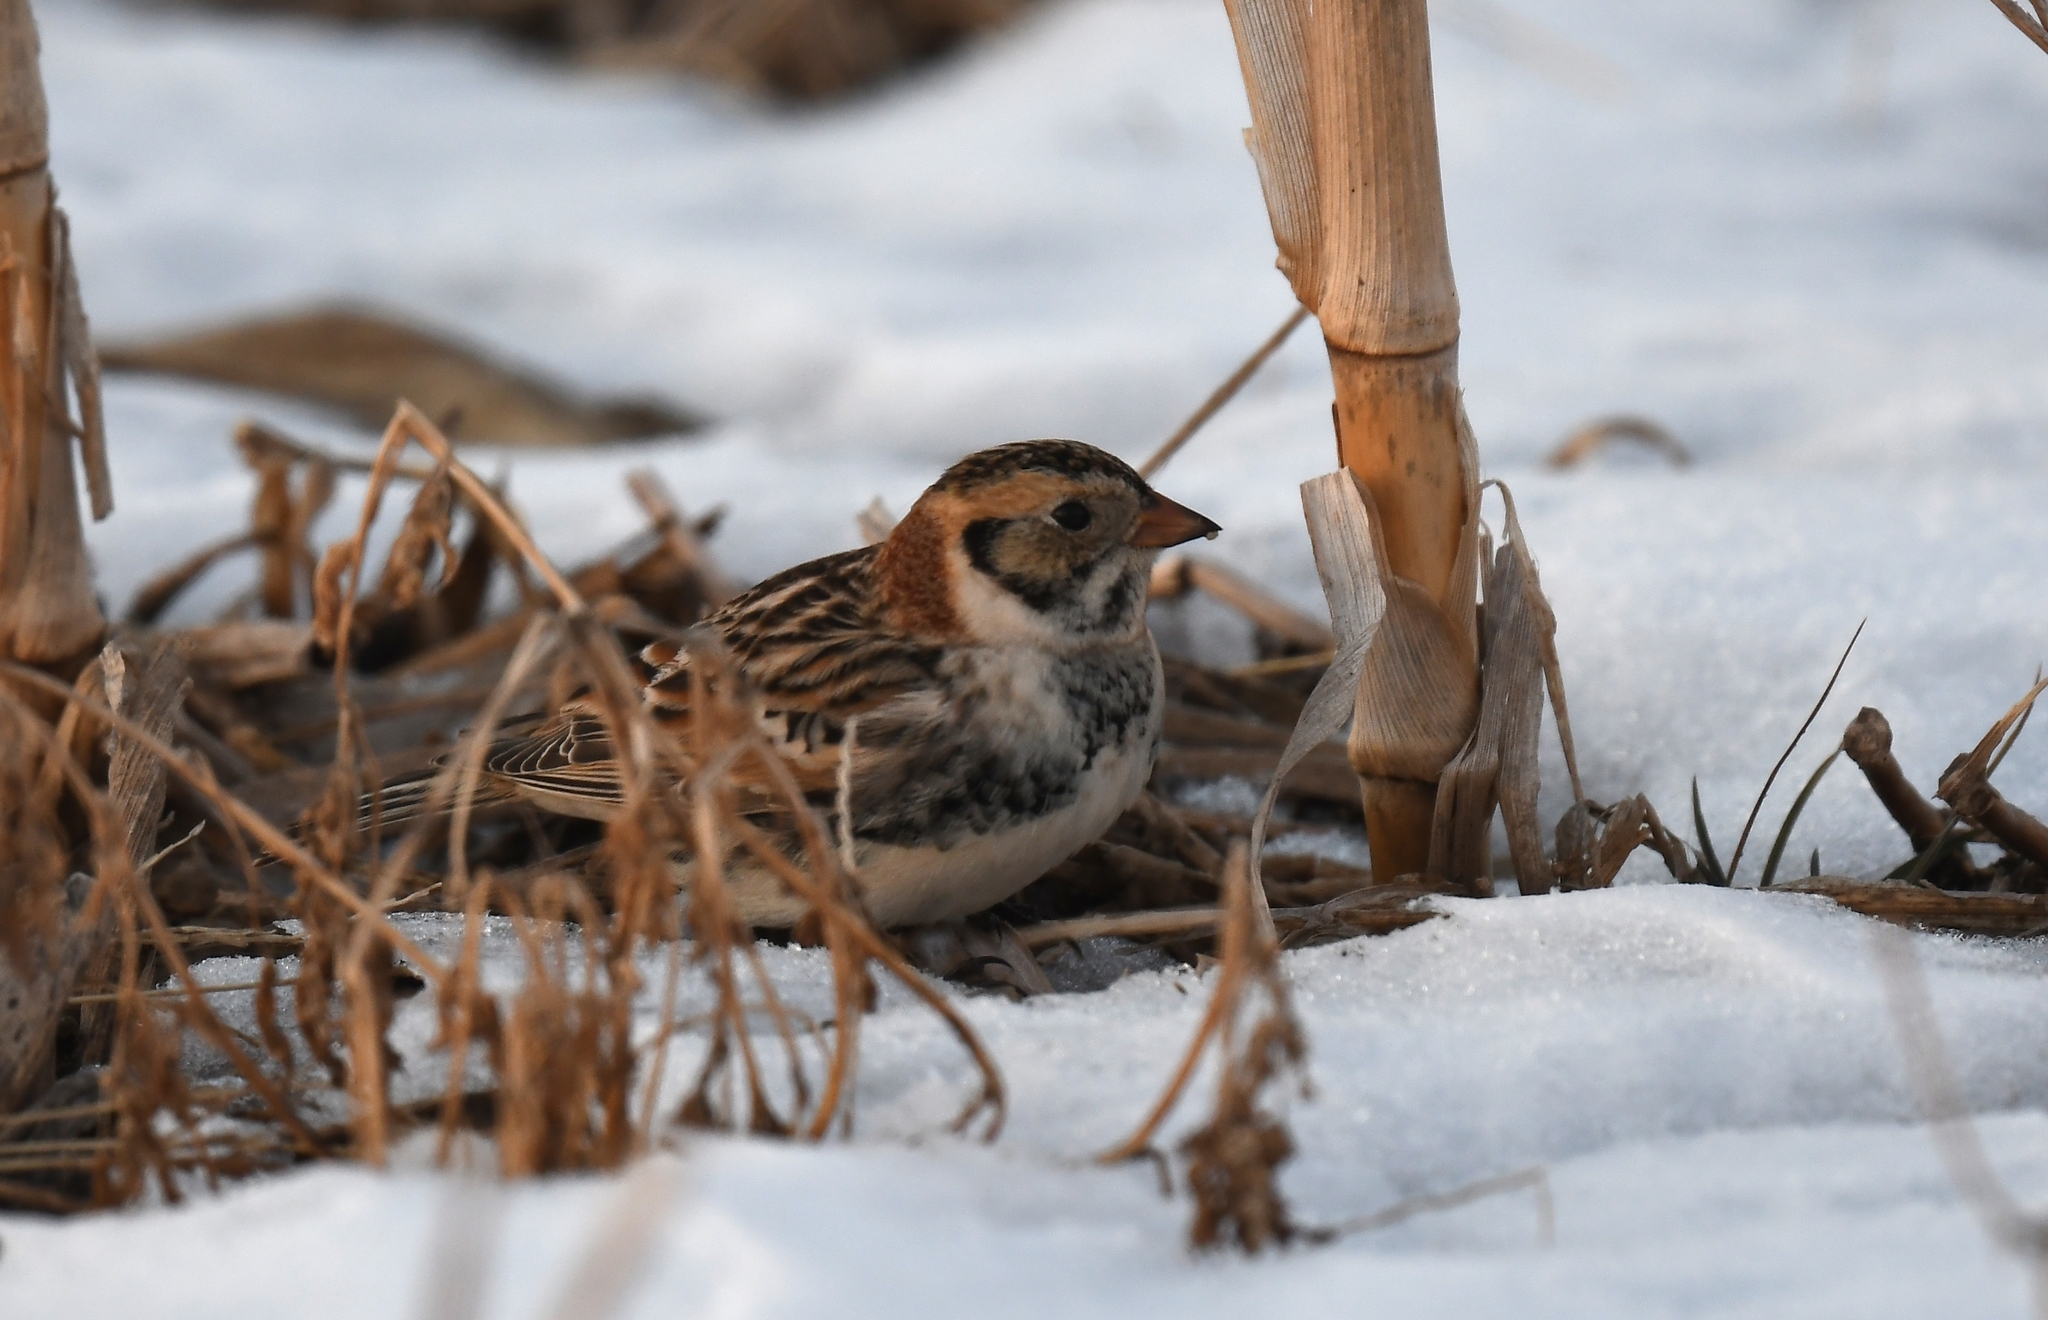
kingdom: Animalia
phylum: Chordata
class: Aves
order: Passeriformes
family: Calcariidae
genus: Calcarius
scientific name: Calcarius lapponicus
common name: Lapland longspur
